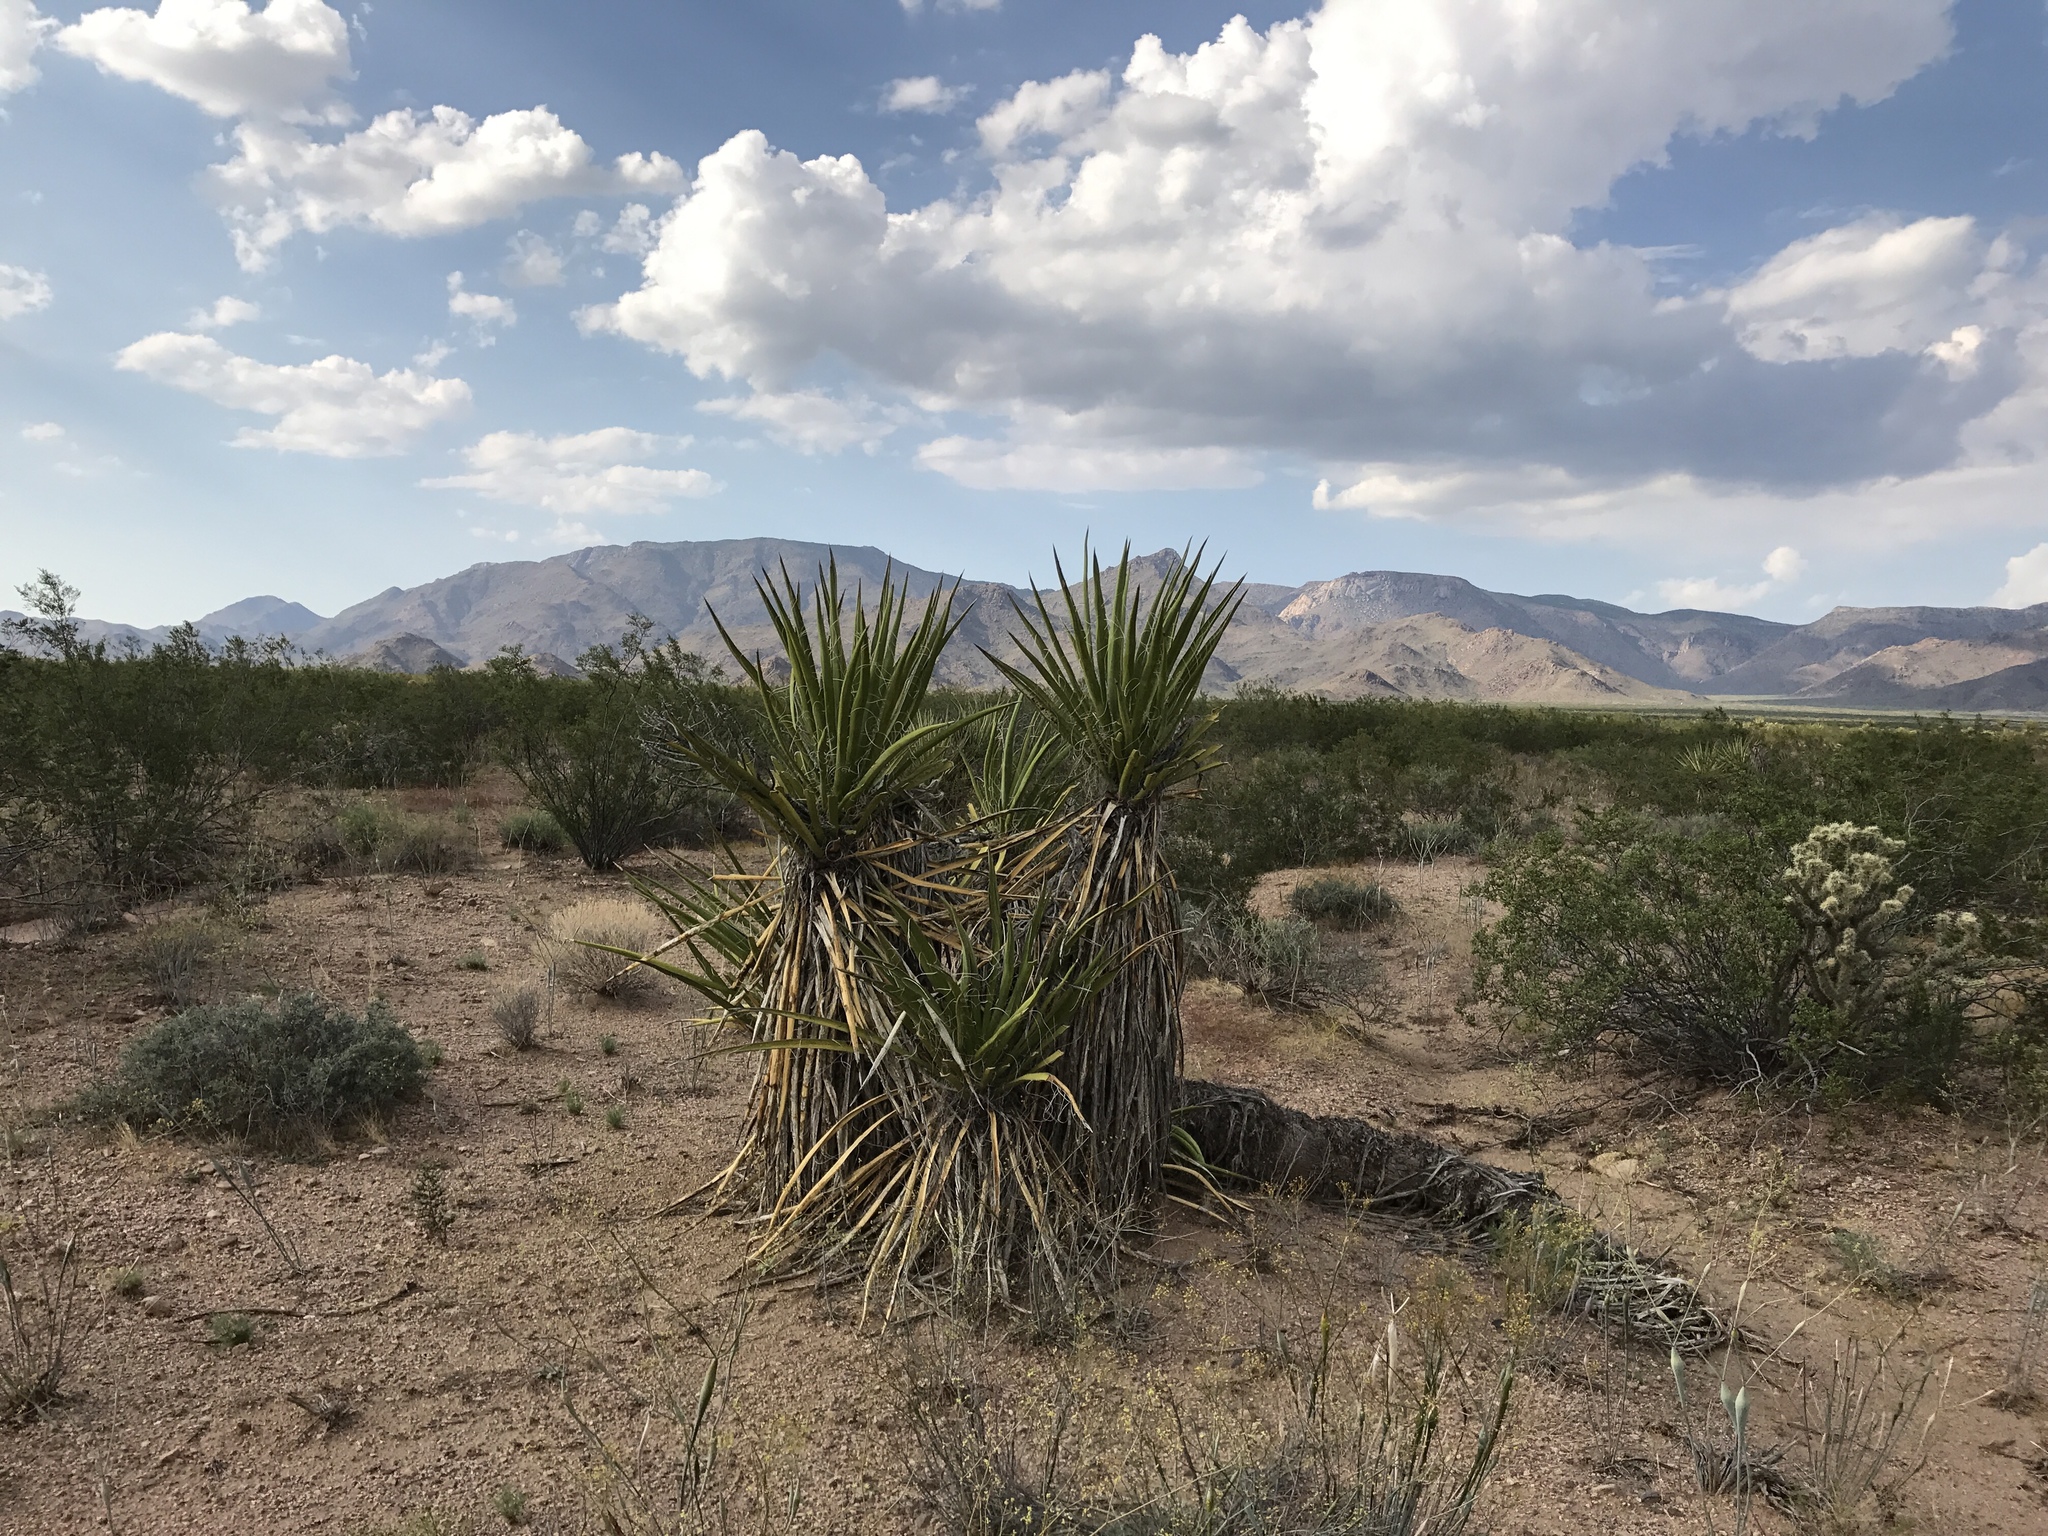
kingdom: Plantae
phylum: Tracheophyta
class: Liliopsida
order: Asparagales
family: Asparagaceae
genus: Yucca
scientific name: Yucca schidigera
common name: Mojave yucca
